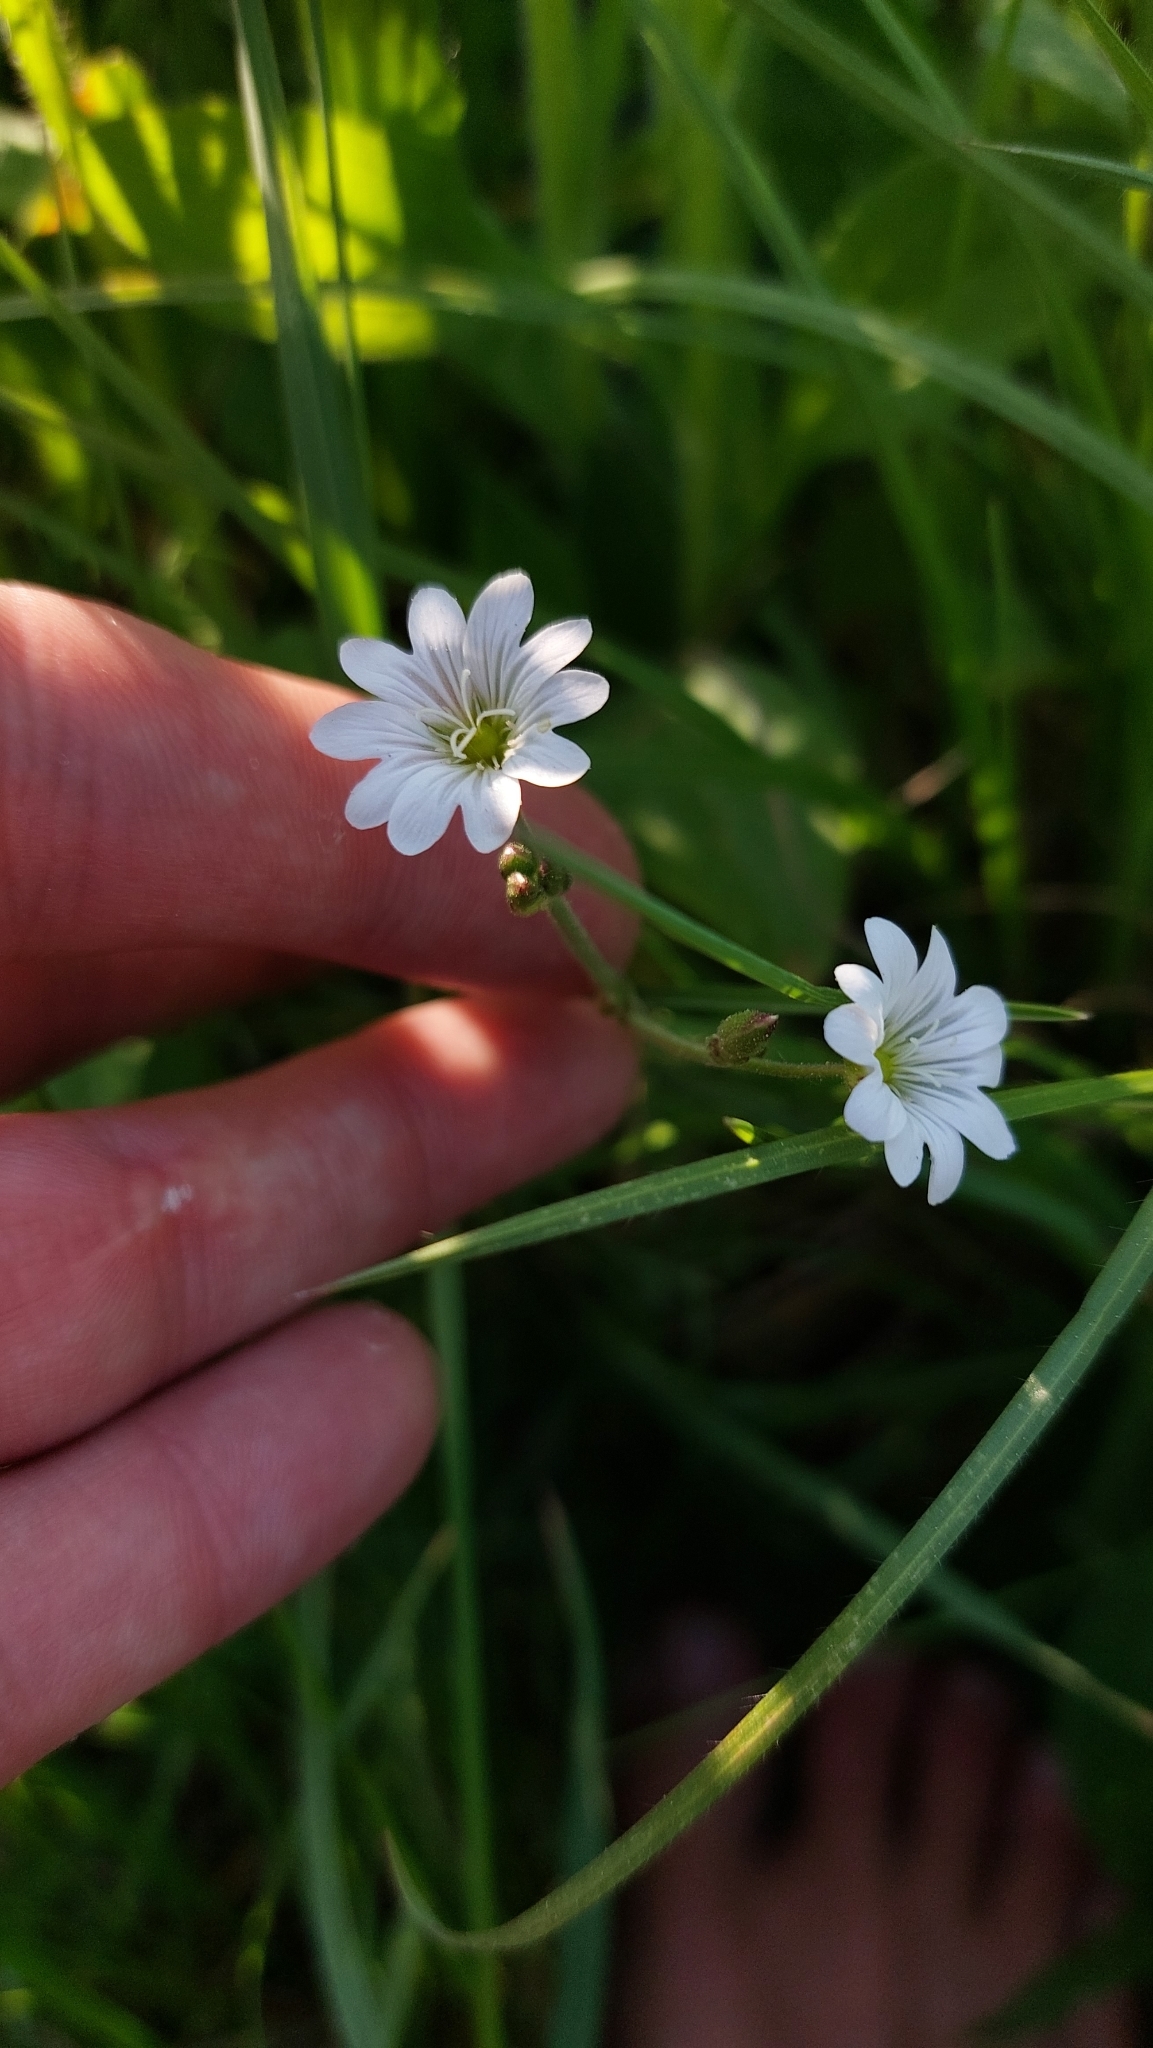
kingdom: Plantae
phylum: Tracheophyta
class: Magnoliopsida
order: Caryophyllales
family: Caryophyllaceae
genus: Cerastium
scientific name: Cerastium arvense
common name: Field mouse-ear
